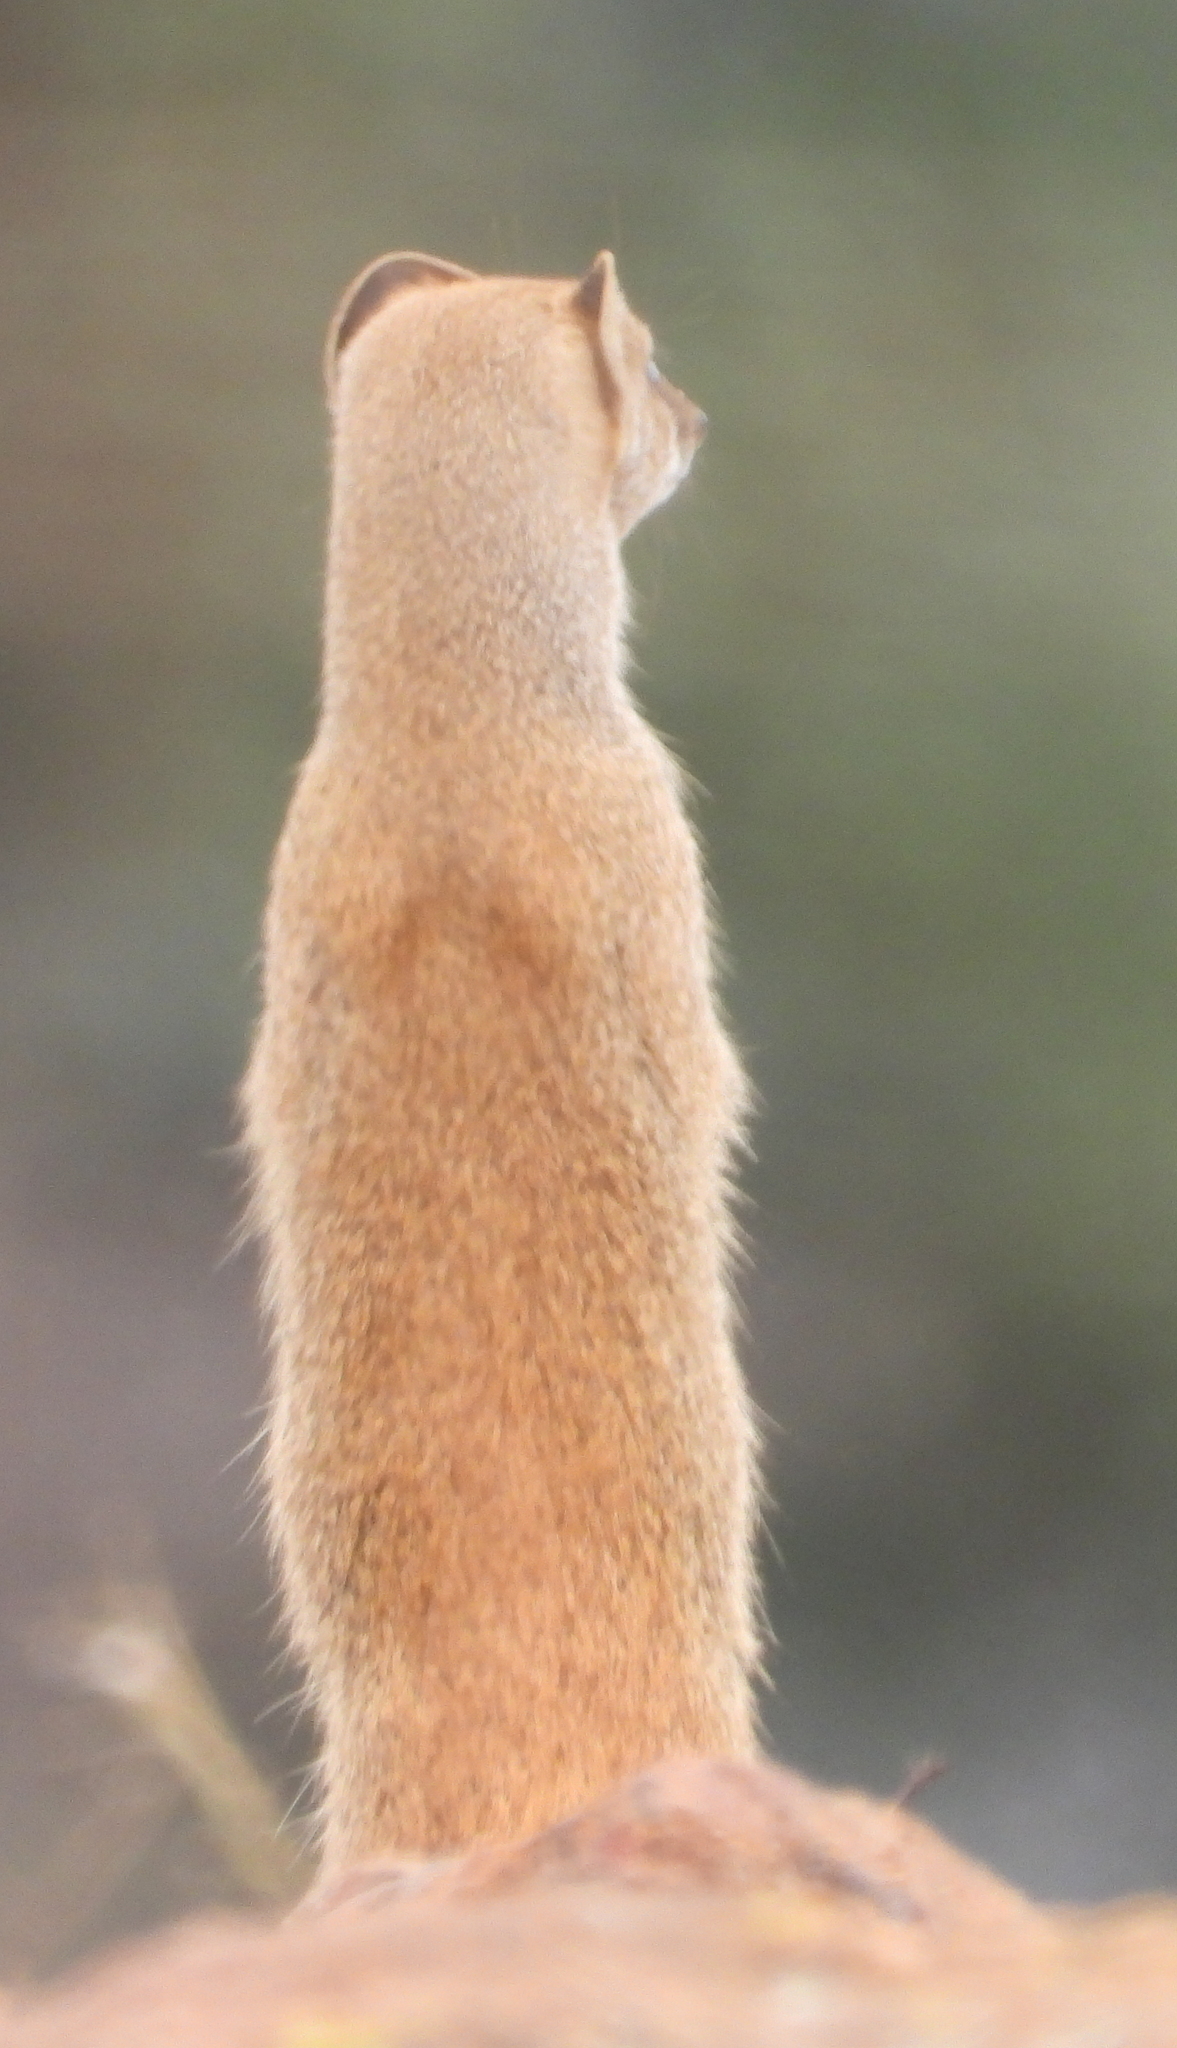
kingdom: Animalia
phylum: Chordata
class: Mammalia
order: Carnivora
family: Herpestidae
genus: Cynictis
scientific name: Cynictis penicillata
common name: Yellow mongoose
